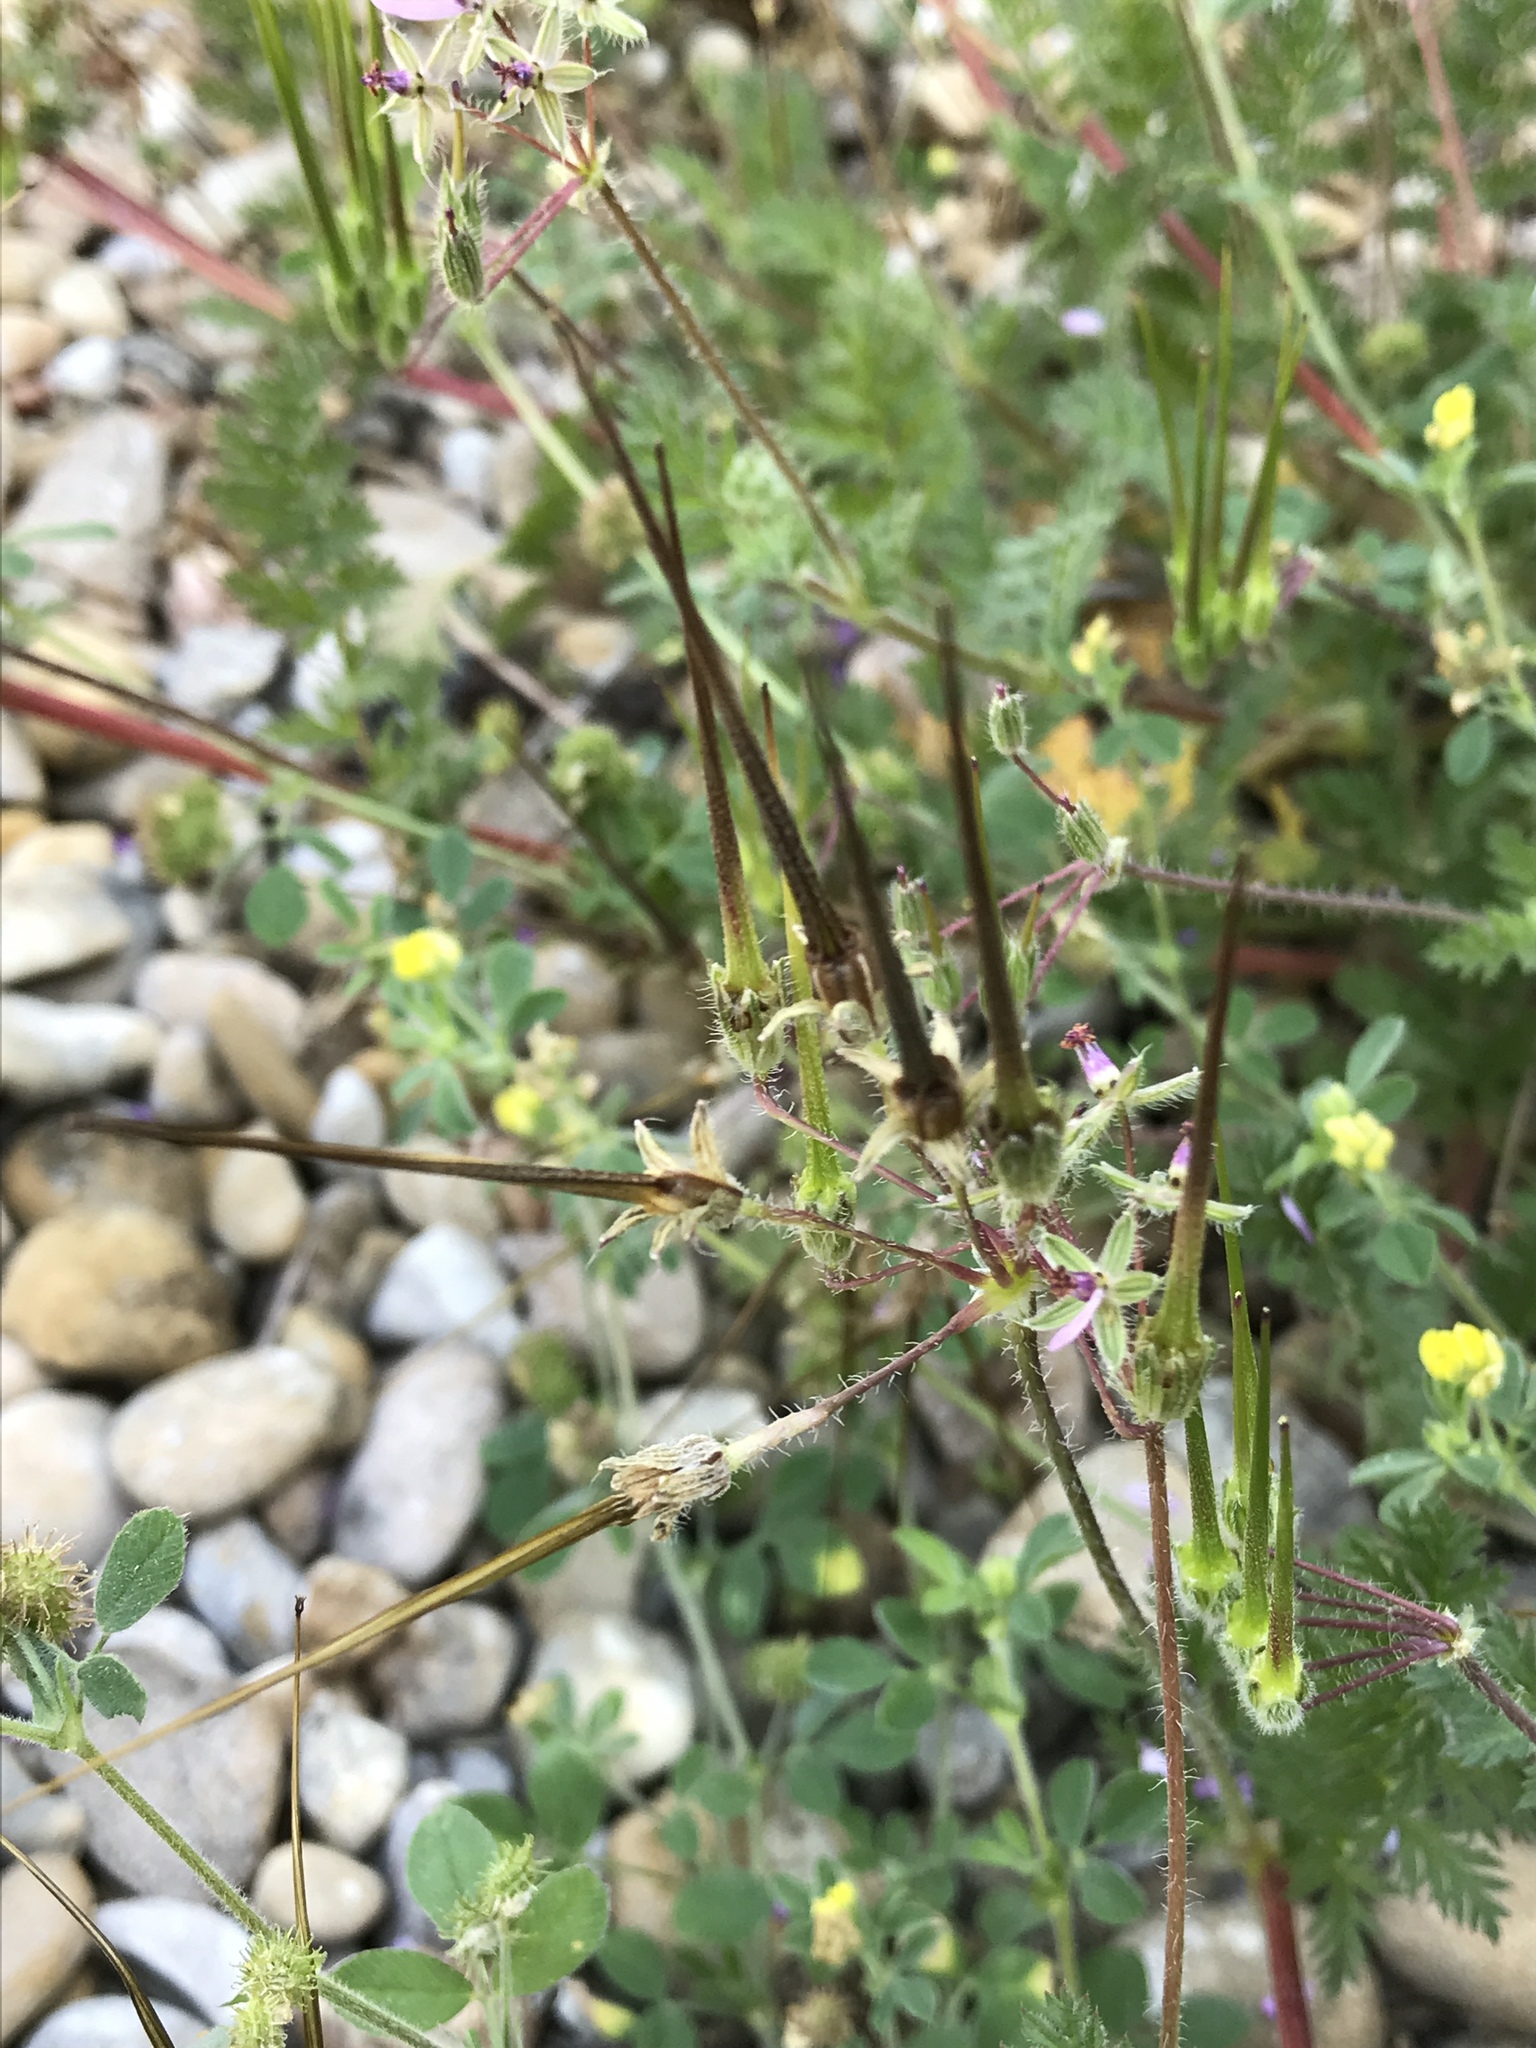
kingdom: Plantae
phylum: Tracheophyta
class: Magnoliopsida
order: Geraniales
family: Geraniaceae
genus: Erodium
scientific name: Erodium cicutarium
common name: Common stork's-bill
